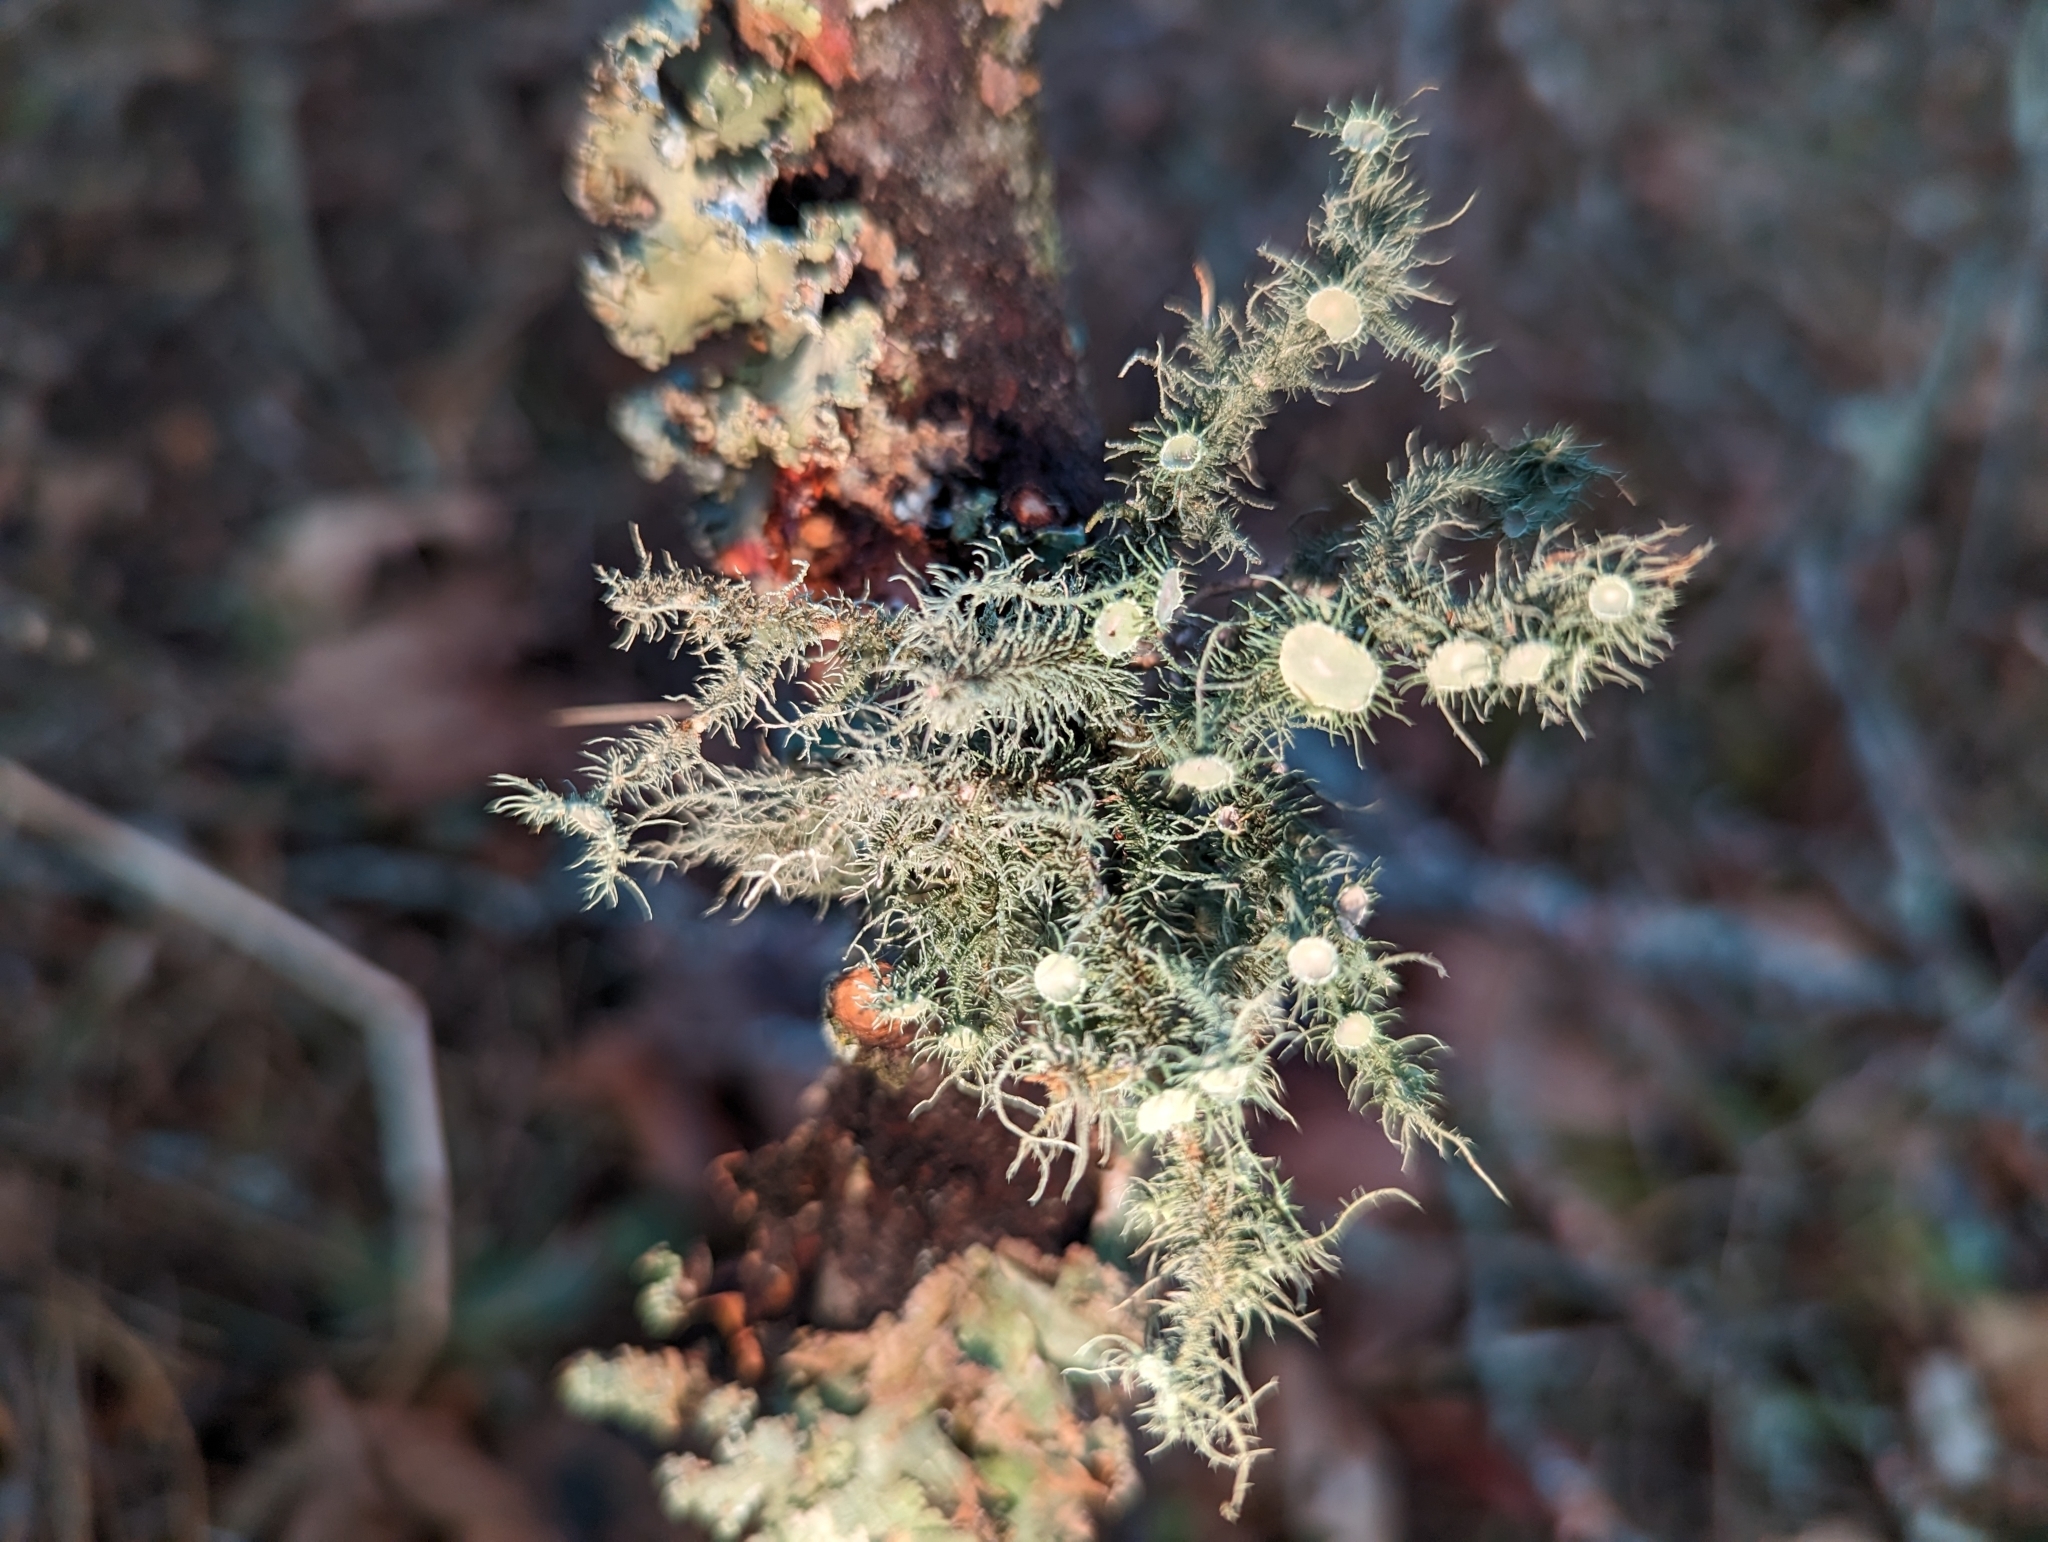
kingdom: Fungi
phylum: Ascomycota
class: Lecanoromycetes
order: Lecanorales
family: Parmeliaceae
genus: Usnea
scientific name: Usnea strigosa
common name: Bushy beard lichen
